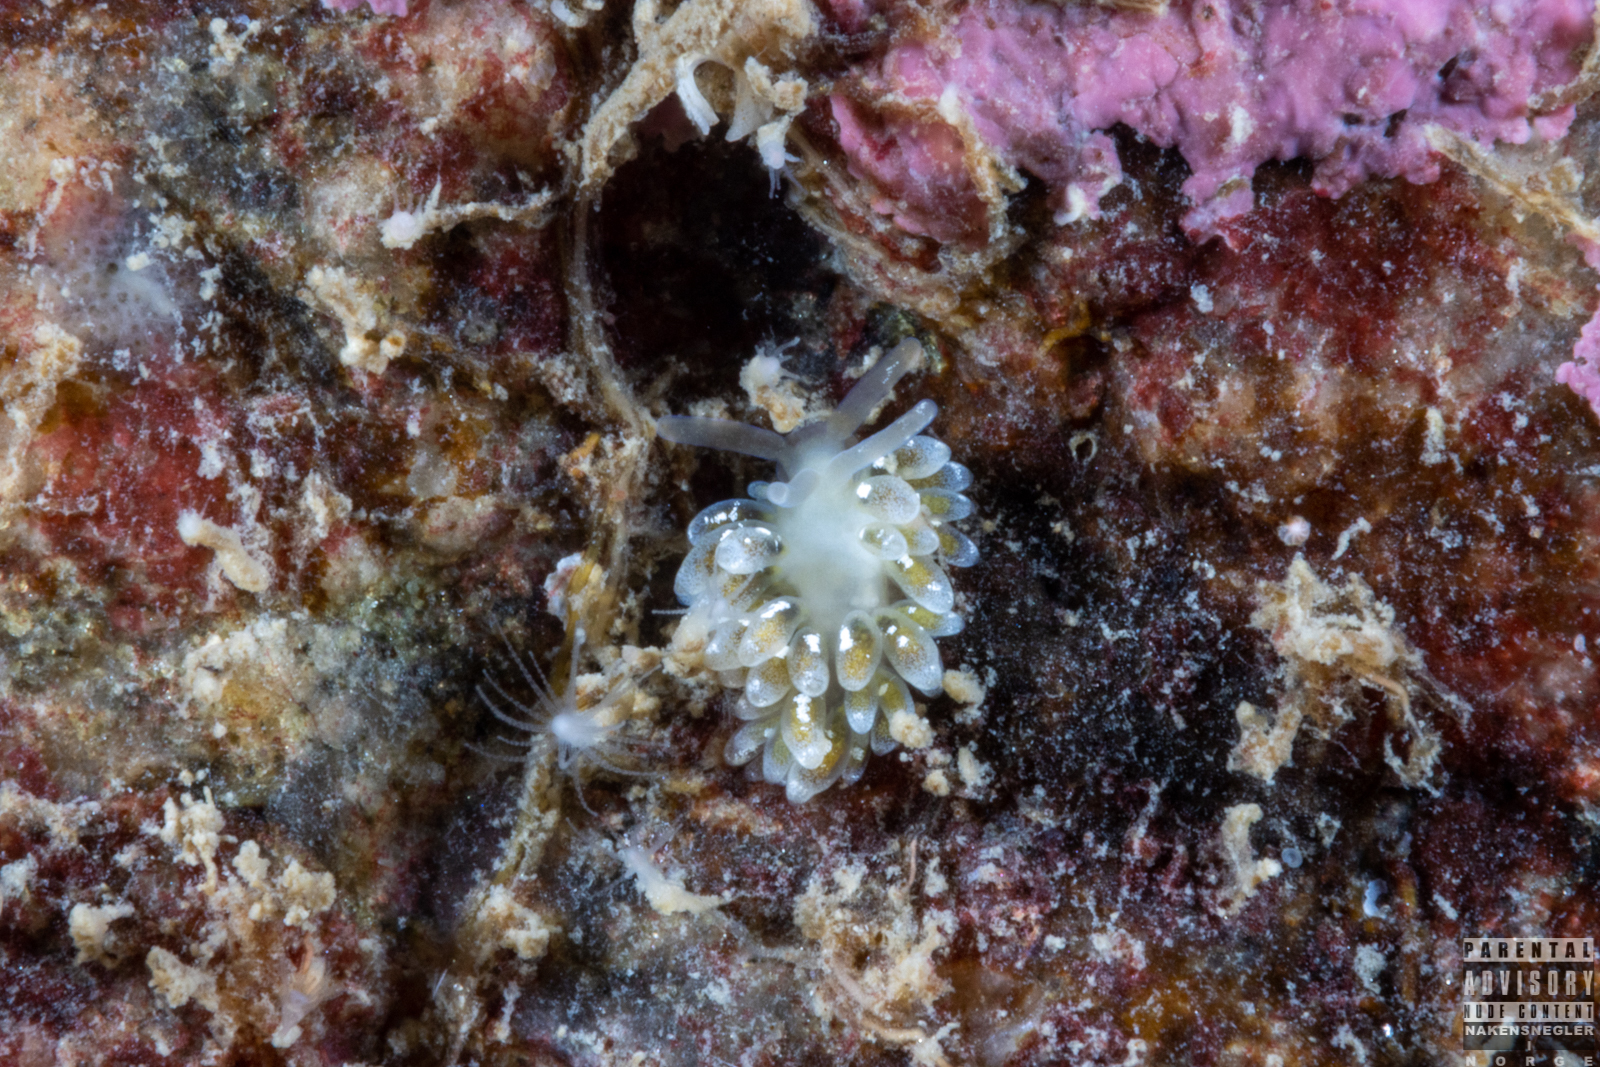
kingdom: Animalia
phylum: Mollusca
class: Gastropoda
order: Nudibranchia
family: Trinchesiidae
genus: Zelentia
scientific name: Zelentia pustulata
